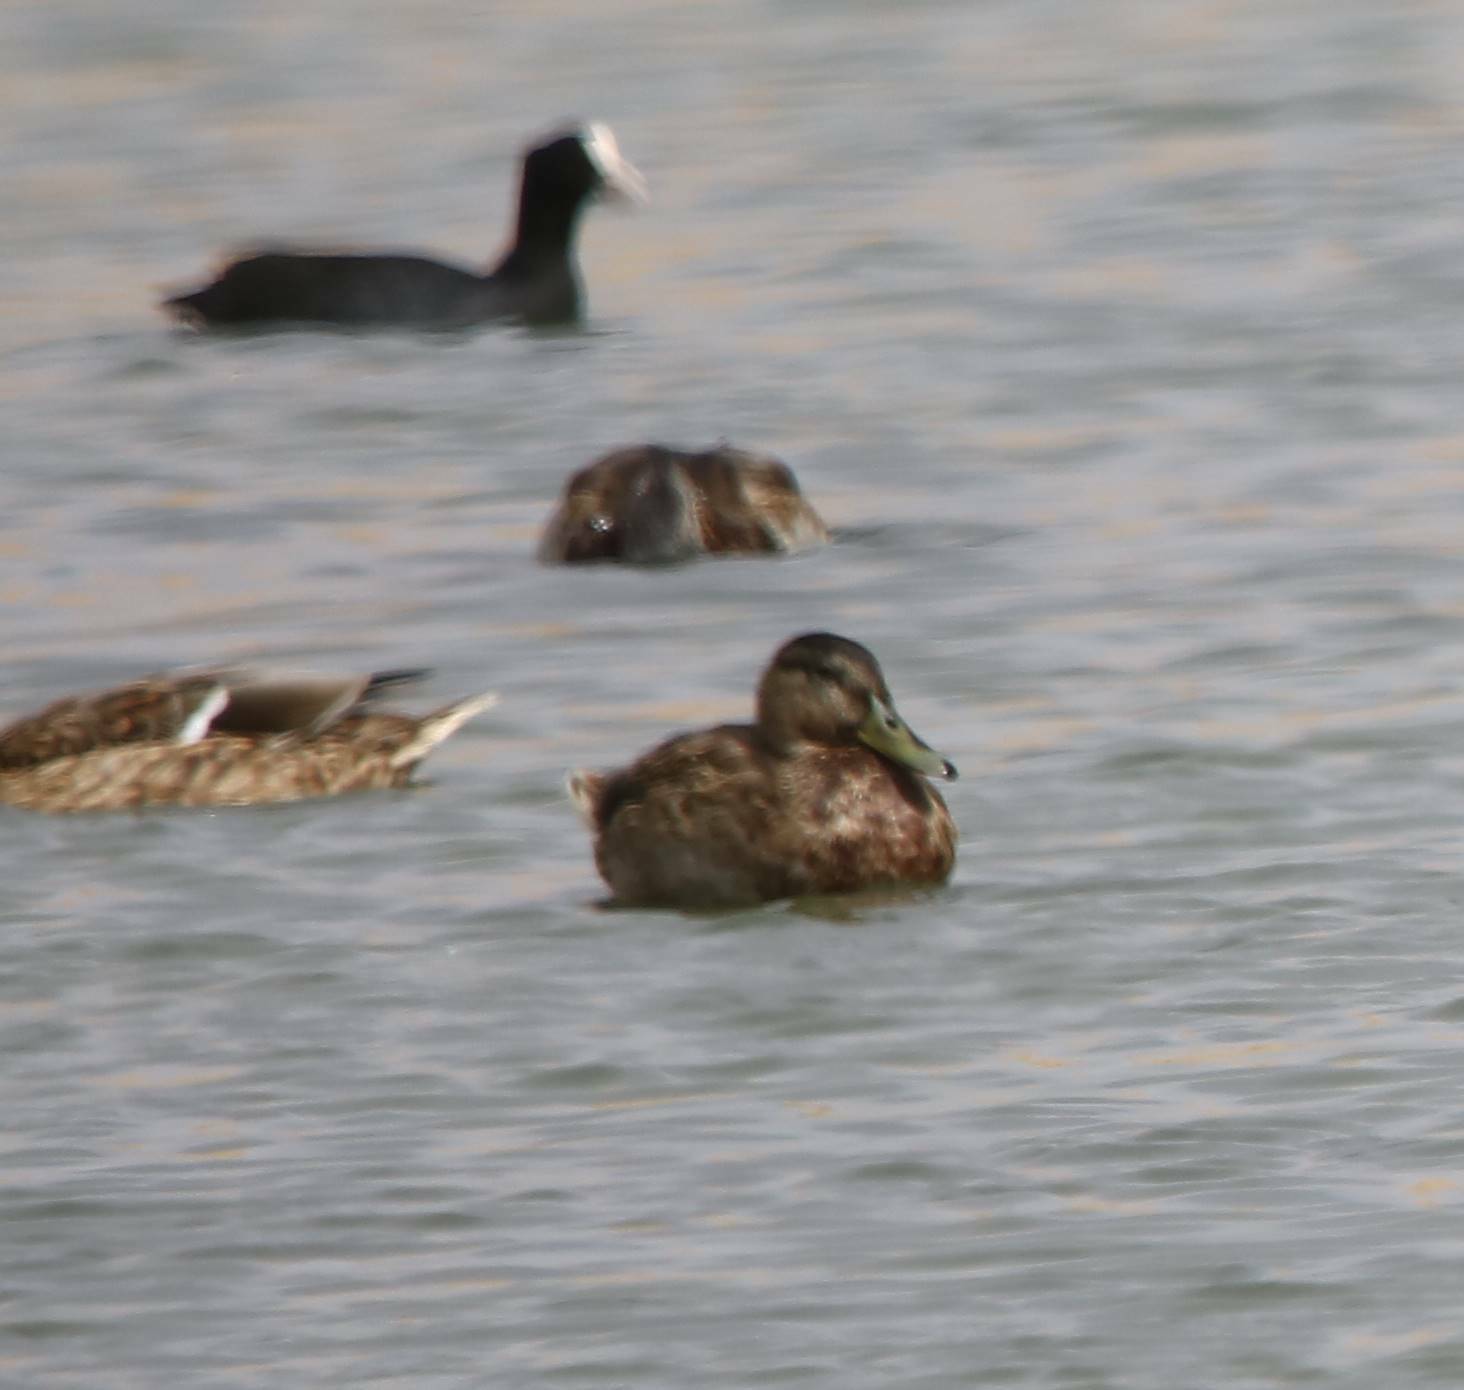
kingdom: Animalia
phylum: Chordata
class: Aves
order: Anseriformes
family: Anatidae
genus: Anas
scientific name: Anas platyrhynchos
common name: Mallard
